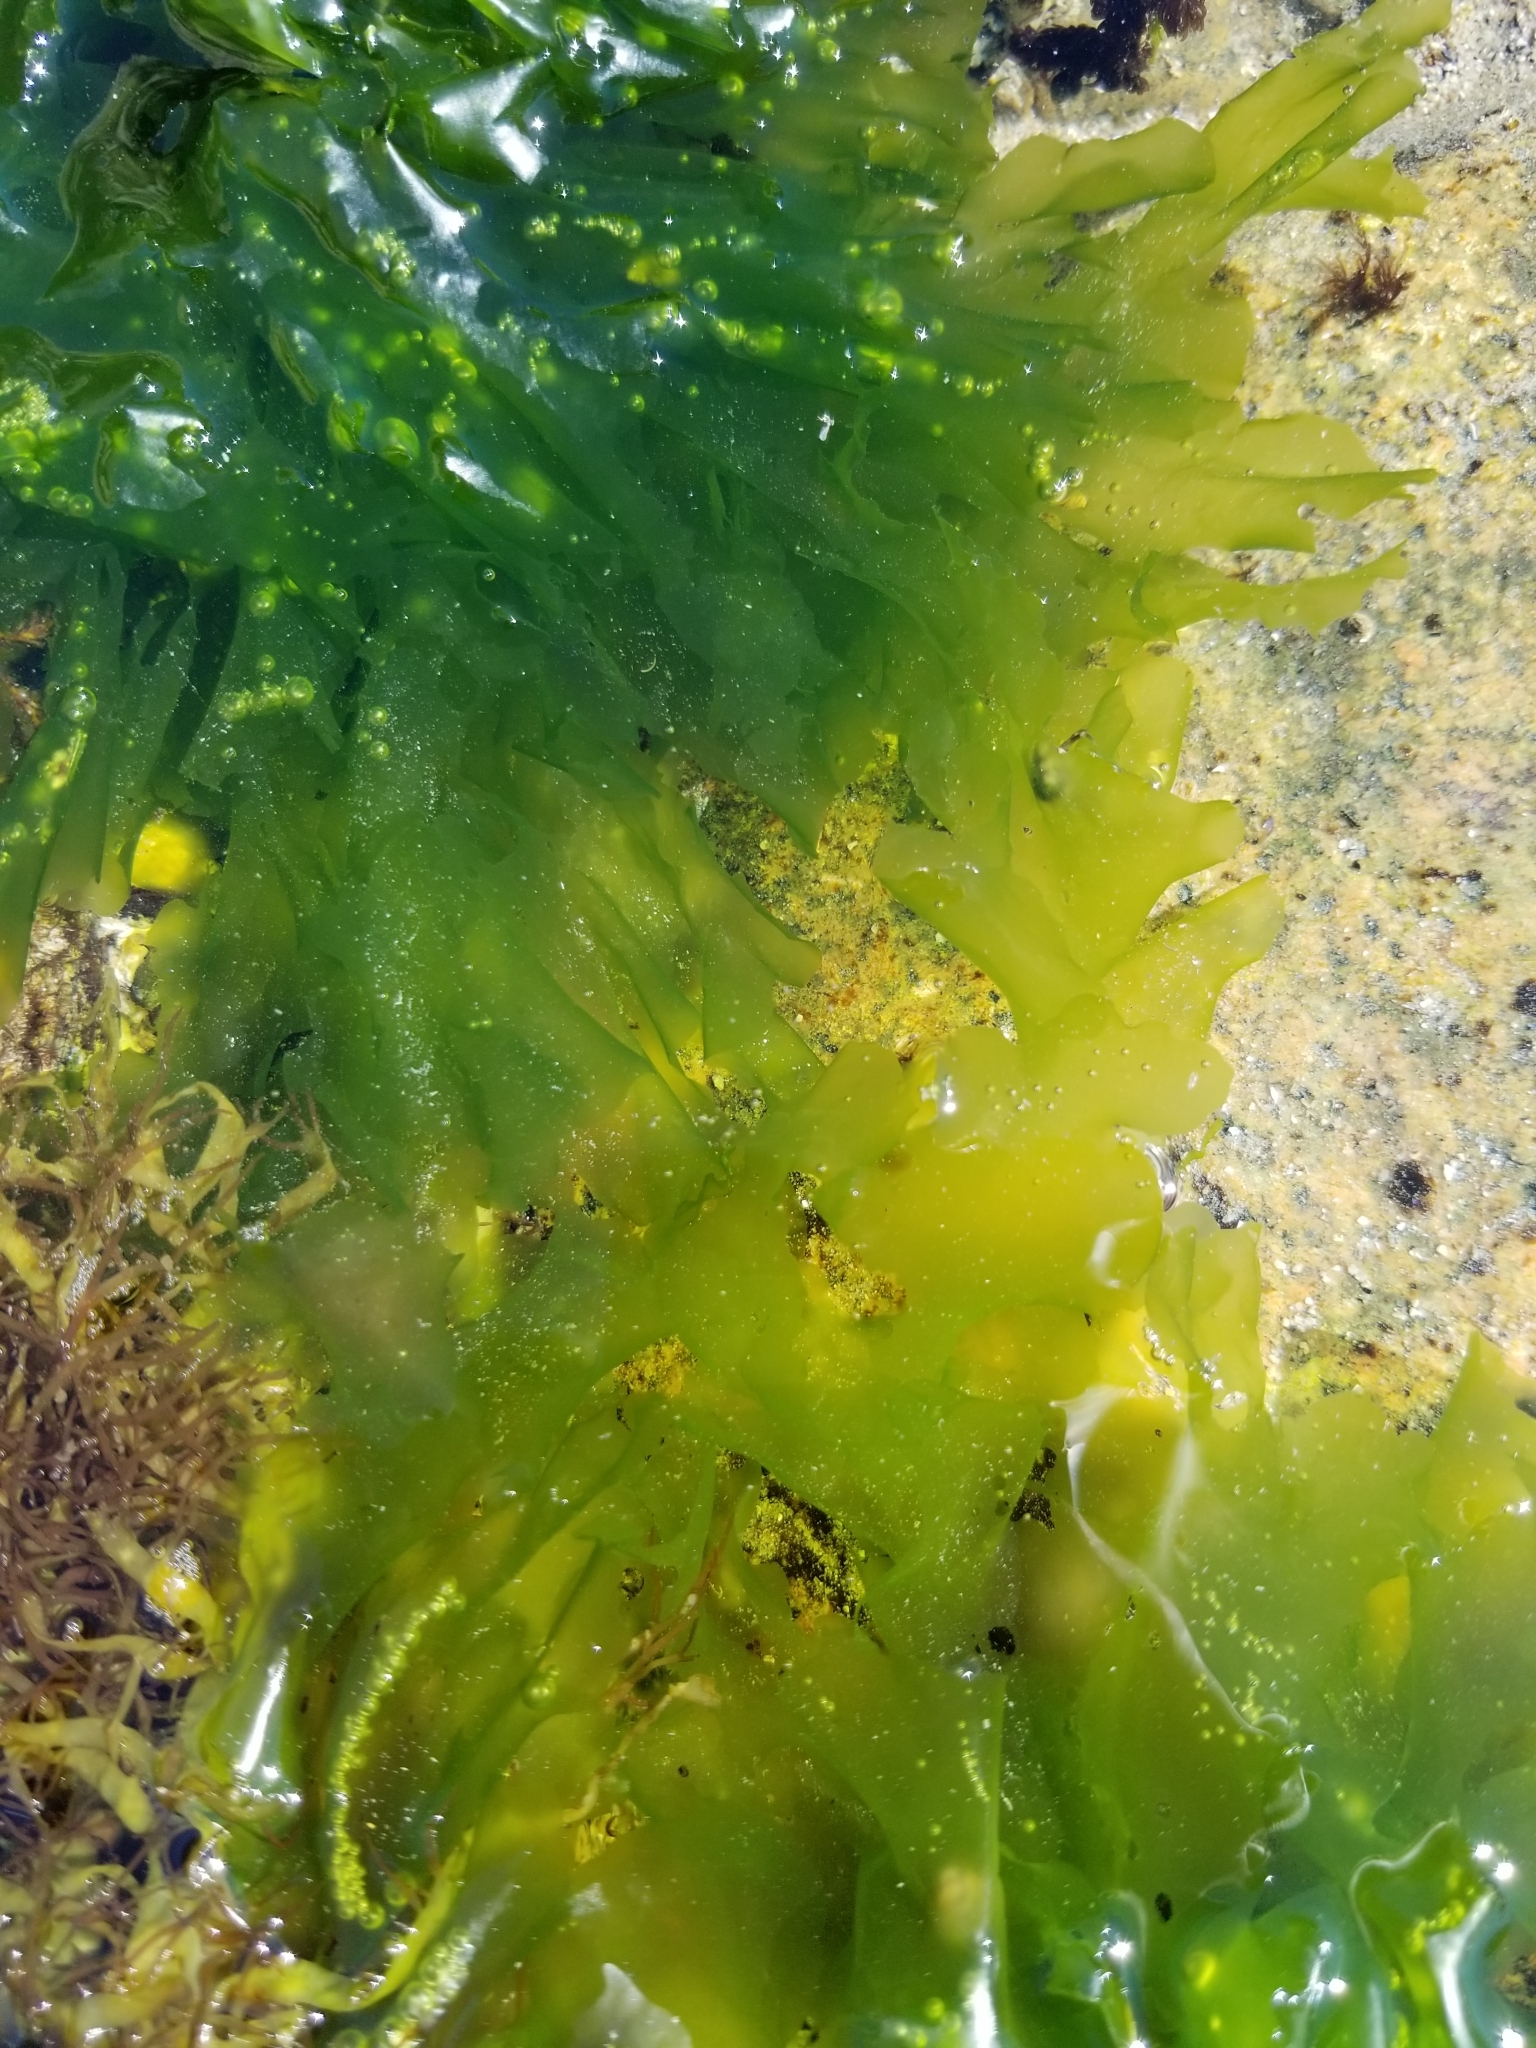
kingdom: Plantae
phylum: Chlorophyta
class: Ulvophyceae
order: Ulvales
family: Ulvaceae
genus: Ulva
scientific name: Ulva lactuca
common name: Sea lettuce
